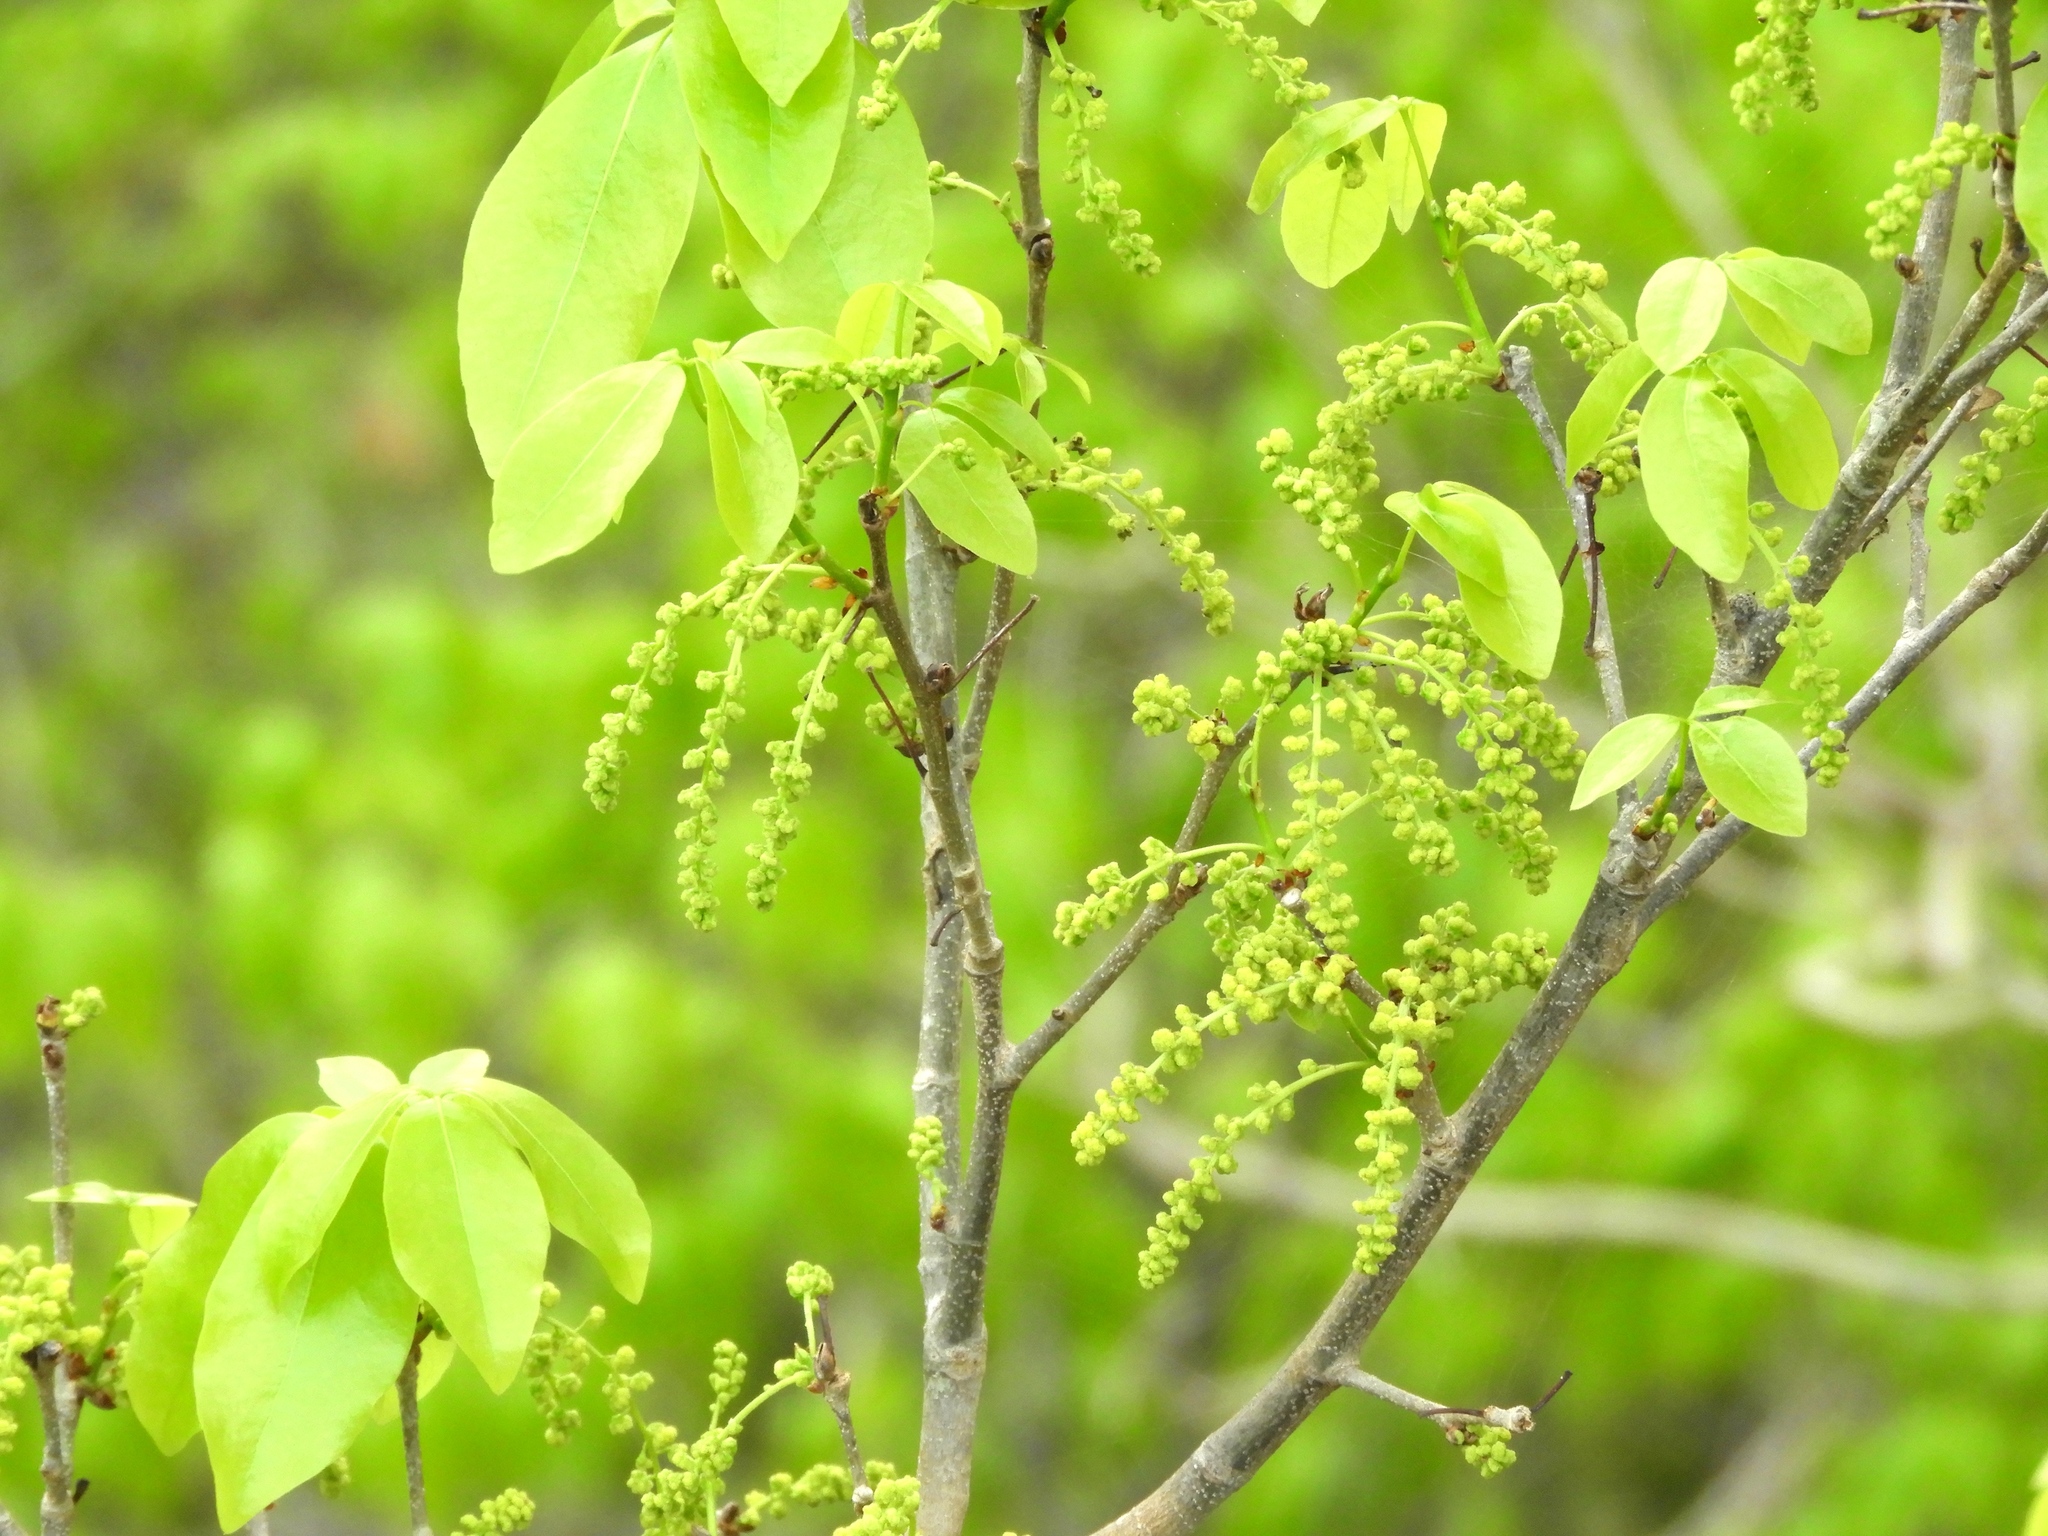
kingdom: Plantae
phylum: Tracheophyta
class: Magnoliopsida
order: Malpighiales
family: Picrodendraceae
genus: Piranhea
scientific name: Piranhea mexicana
